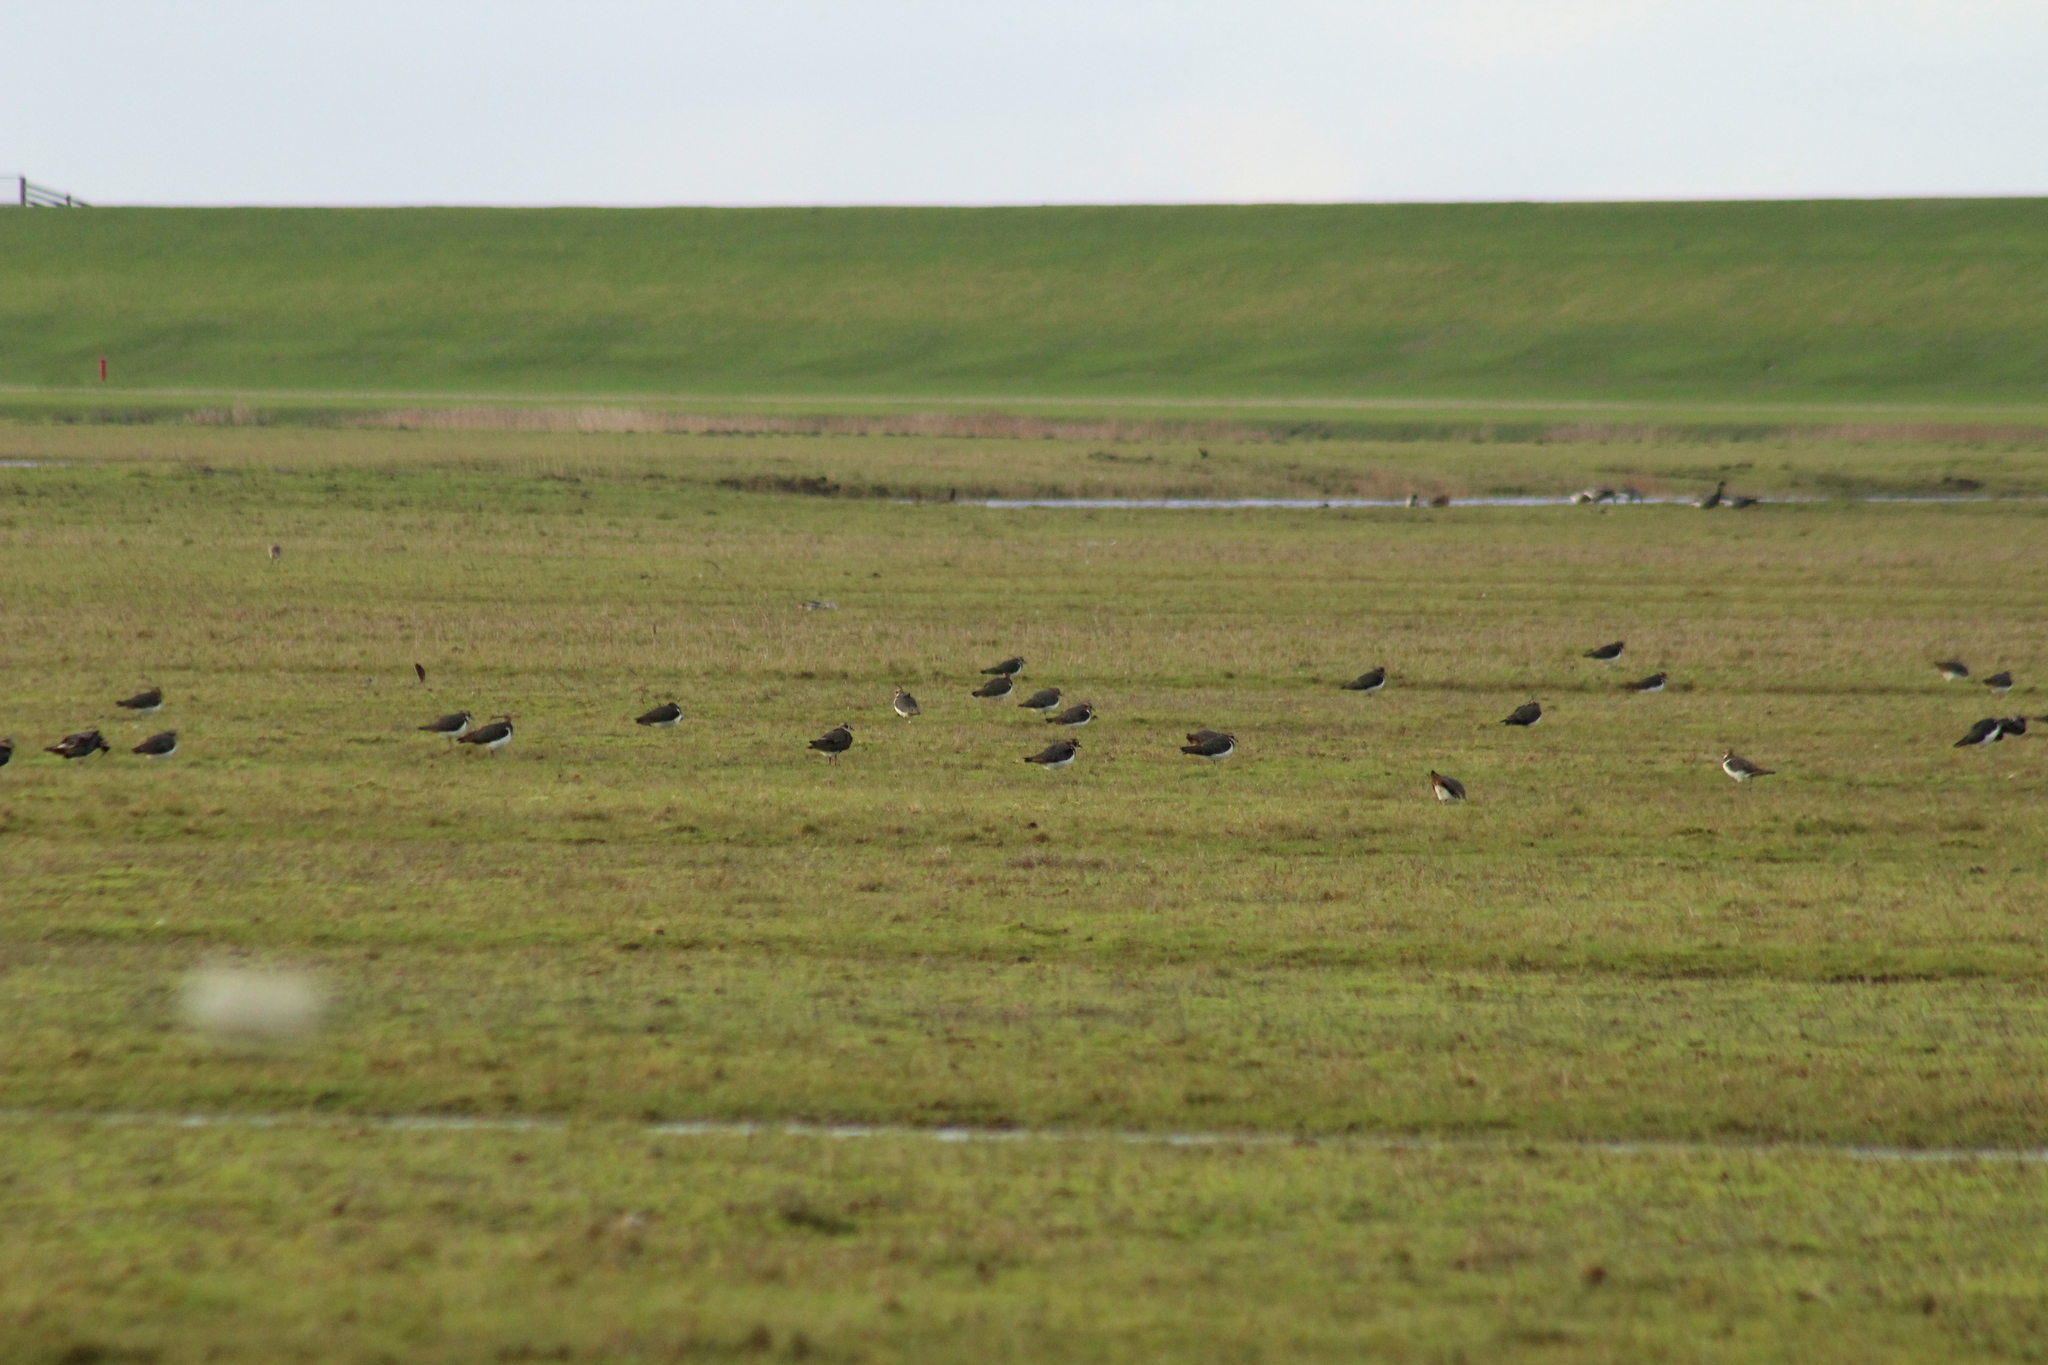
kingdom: Animalia
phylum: Chordata
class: Aves
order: Charadriiformes
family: Charadriidae
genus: Vanellus
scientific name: Vanellus vanellus
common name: Northern lapwing
